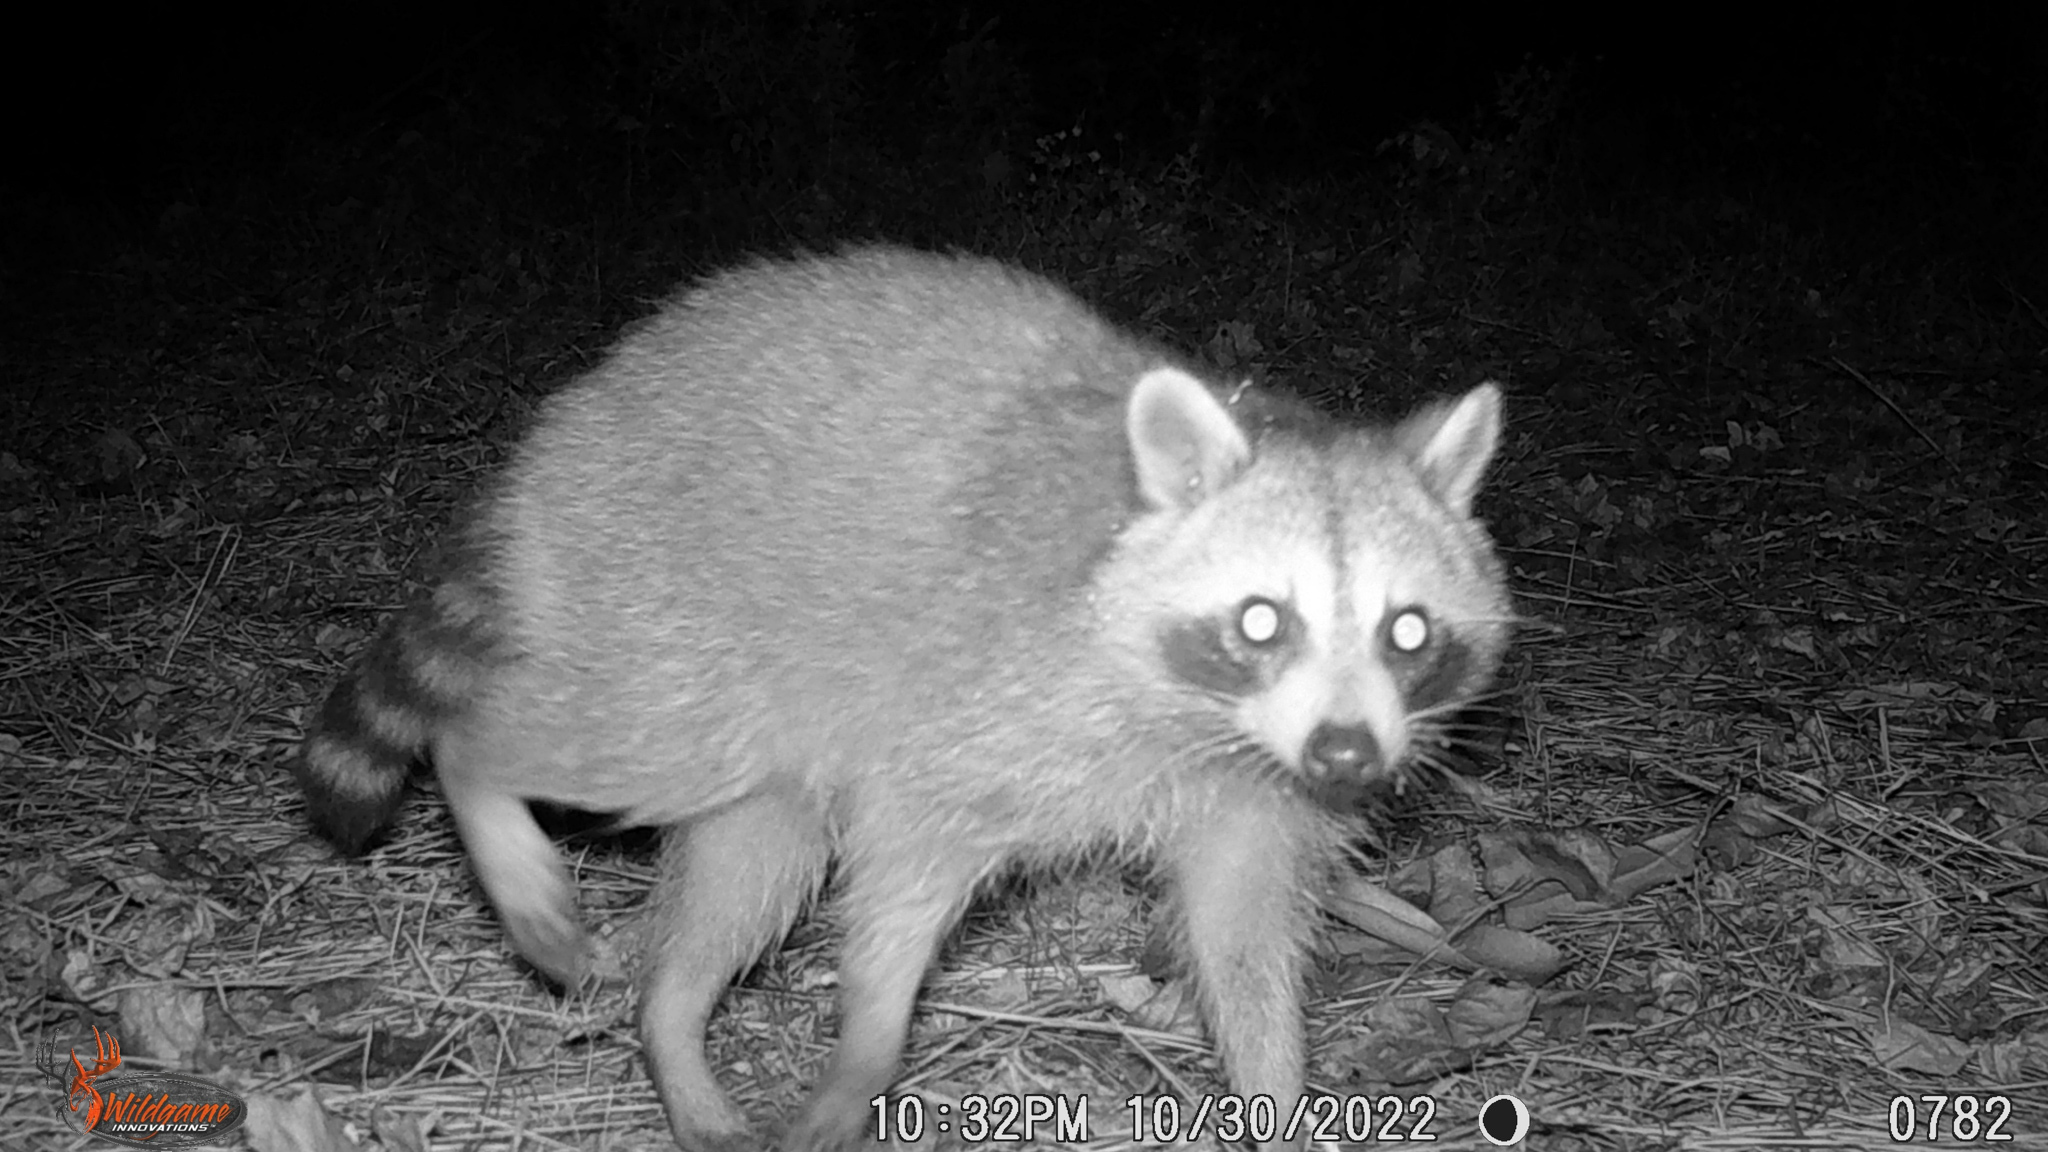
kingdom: Animalia
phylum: Chordata
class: Mammalia
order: Carnivora
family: Procyonidae
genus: Procyon
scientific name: Procyon lotor
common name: Raccoon
